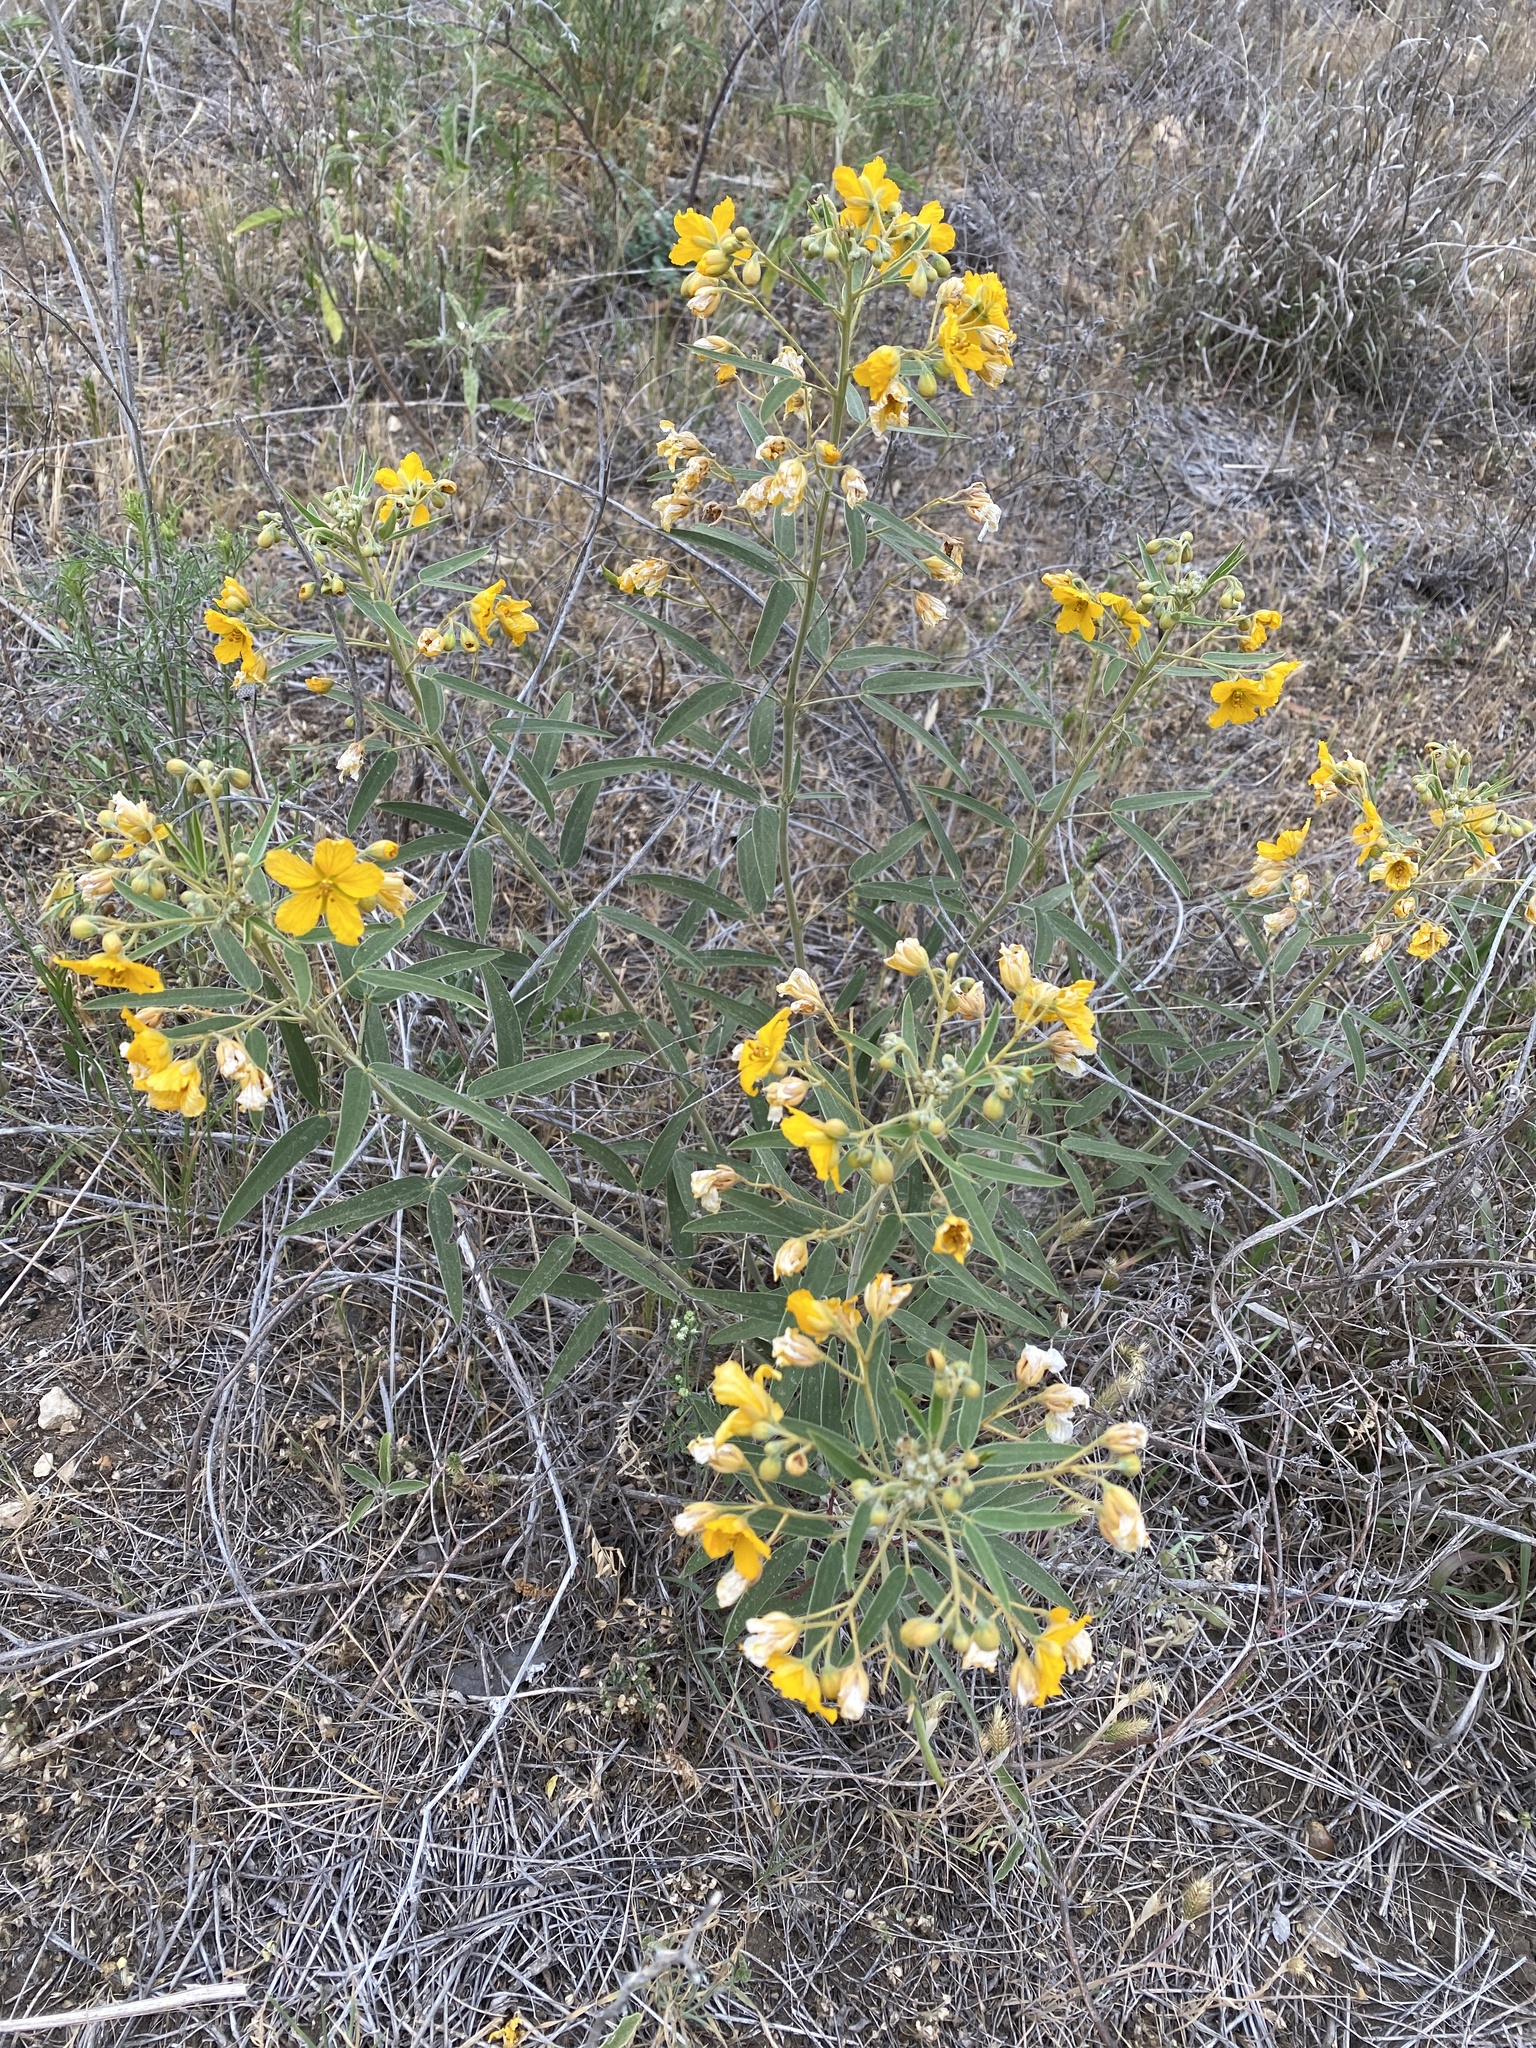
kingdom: Plantae
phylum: Tracheophyta
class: Magnoliopsida
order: Fabales
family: Fabaceae
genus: Senna
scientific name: Senna roemeriana
